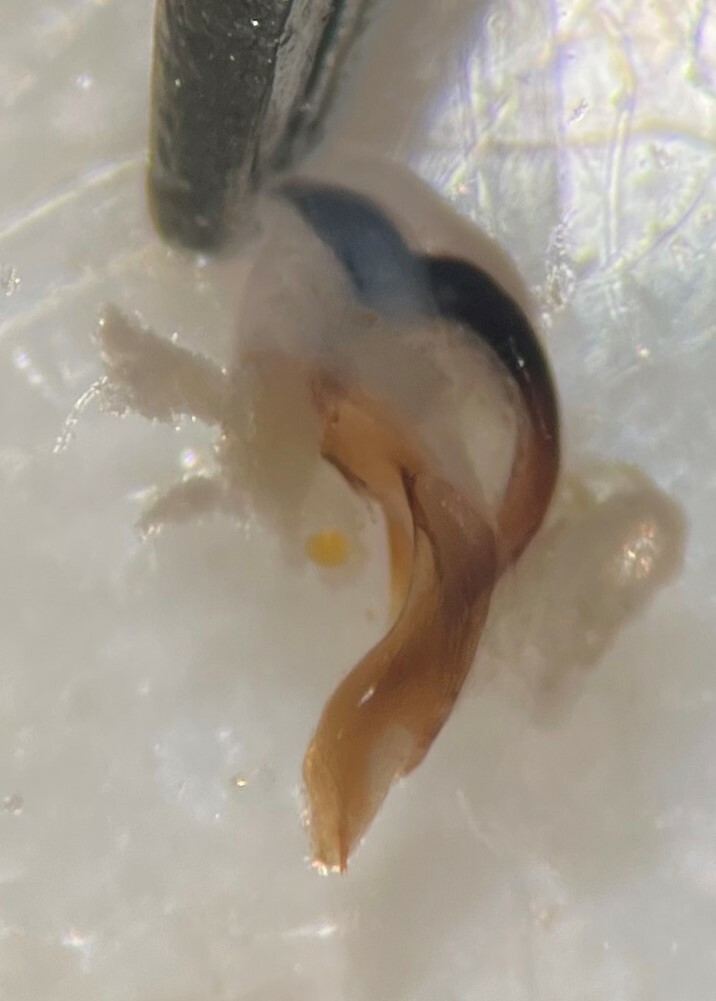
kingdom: Animalia
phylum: Arthropoda
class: Insecta
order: Coleoptera
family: Dytiscidae
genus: Hygrotus
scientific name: Hygrotus dissimilis
